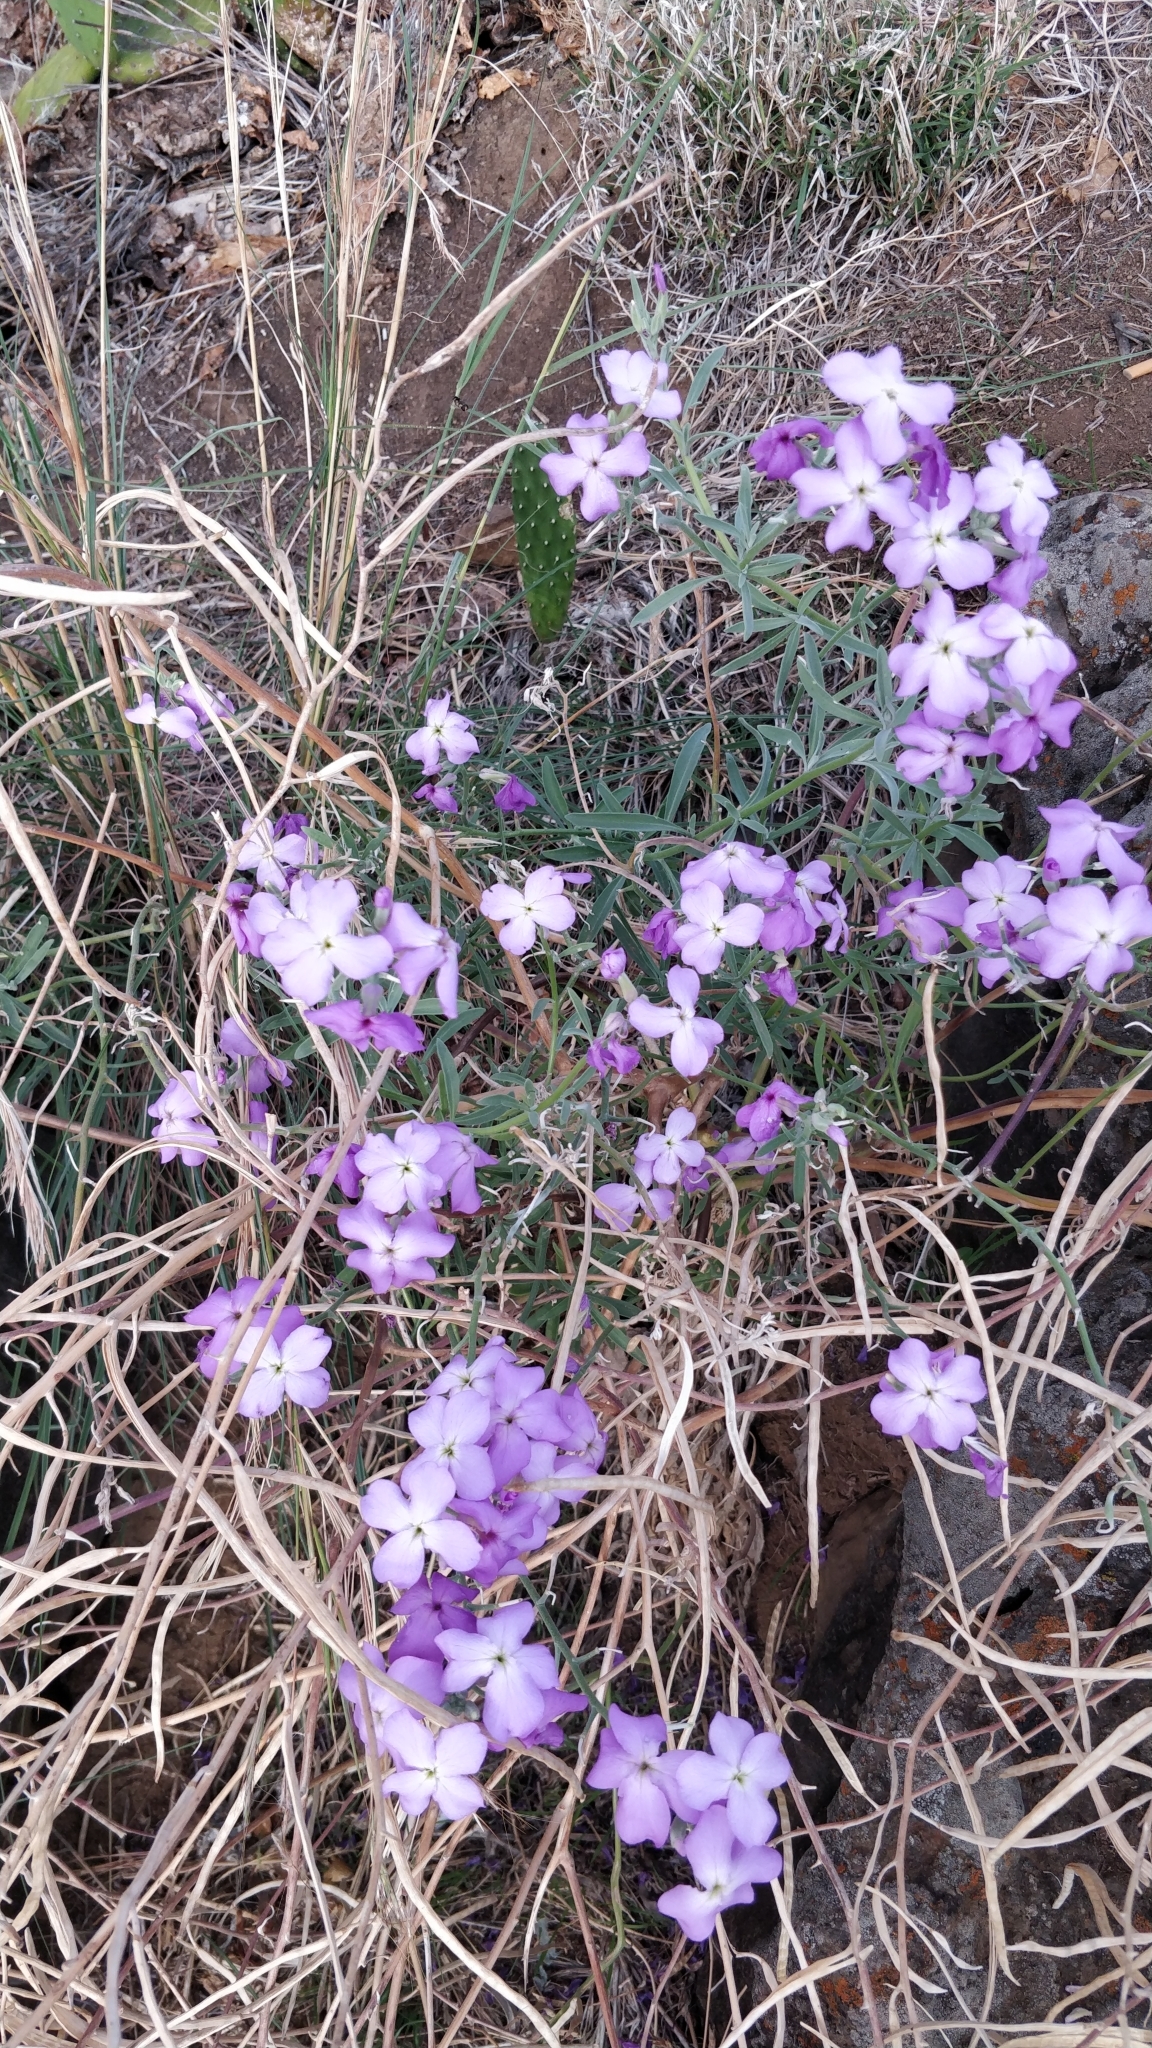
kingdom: Plantae
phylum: Tracheophyta
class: Magnoliopsida
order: Brassicales
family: Brassicaceae
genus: Matthiola
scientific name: Matthiola maderensis
